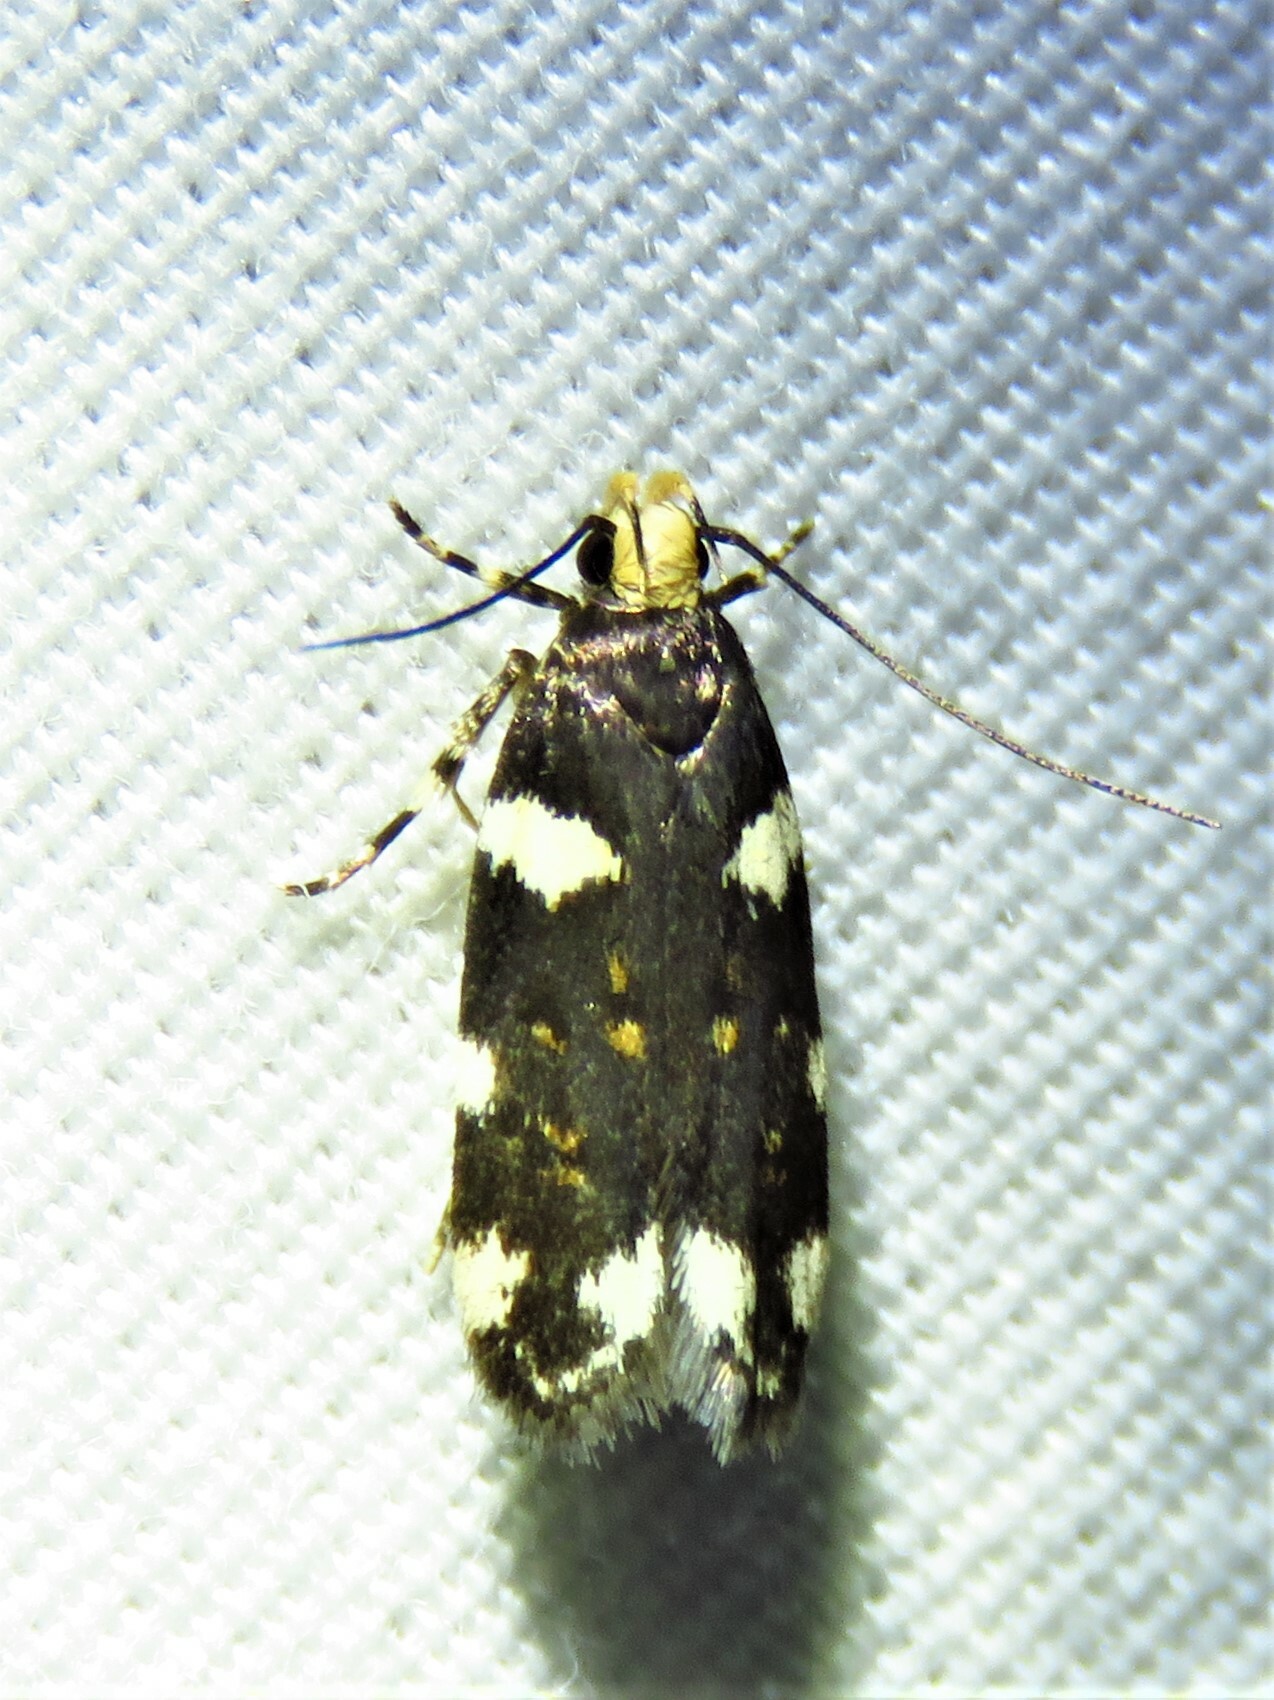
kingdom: Animalia
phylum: Arthropoda
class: Insecta
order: Lepidoptera
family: Gelechiidae
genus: Fascista
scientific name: Fascista cercerisella
